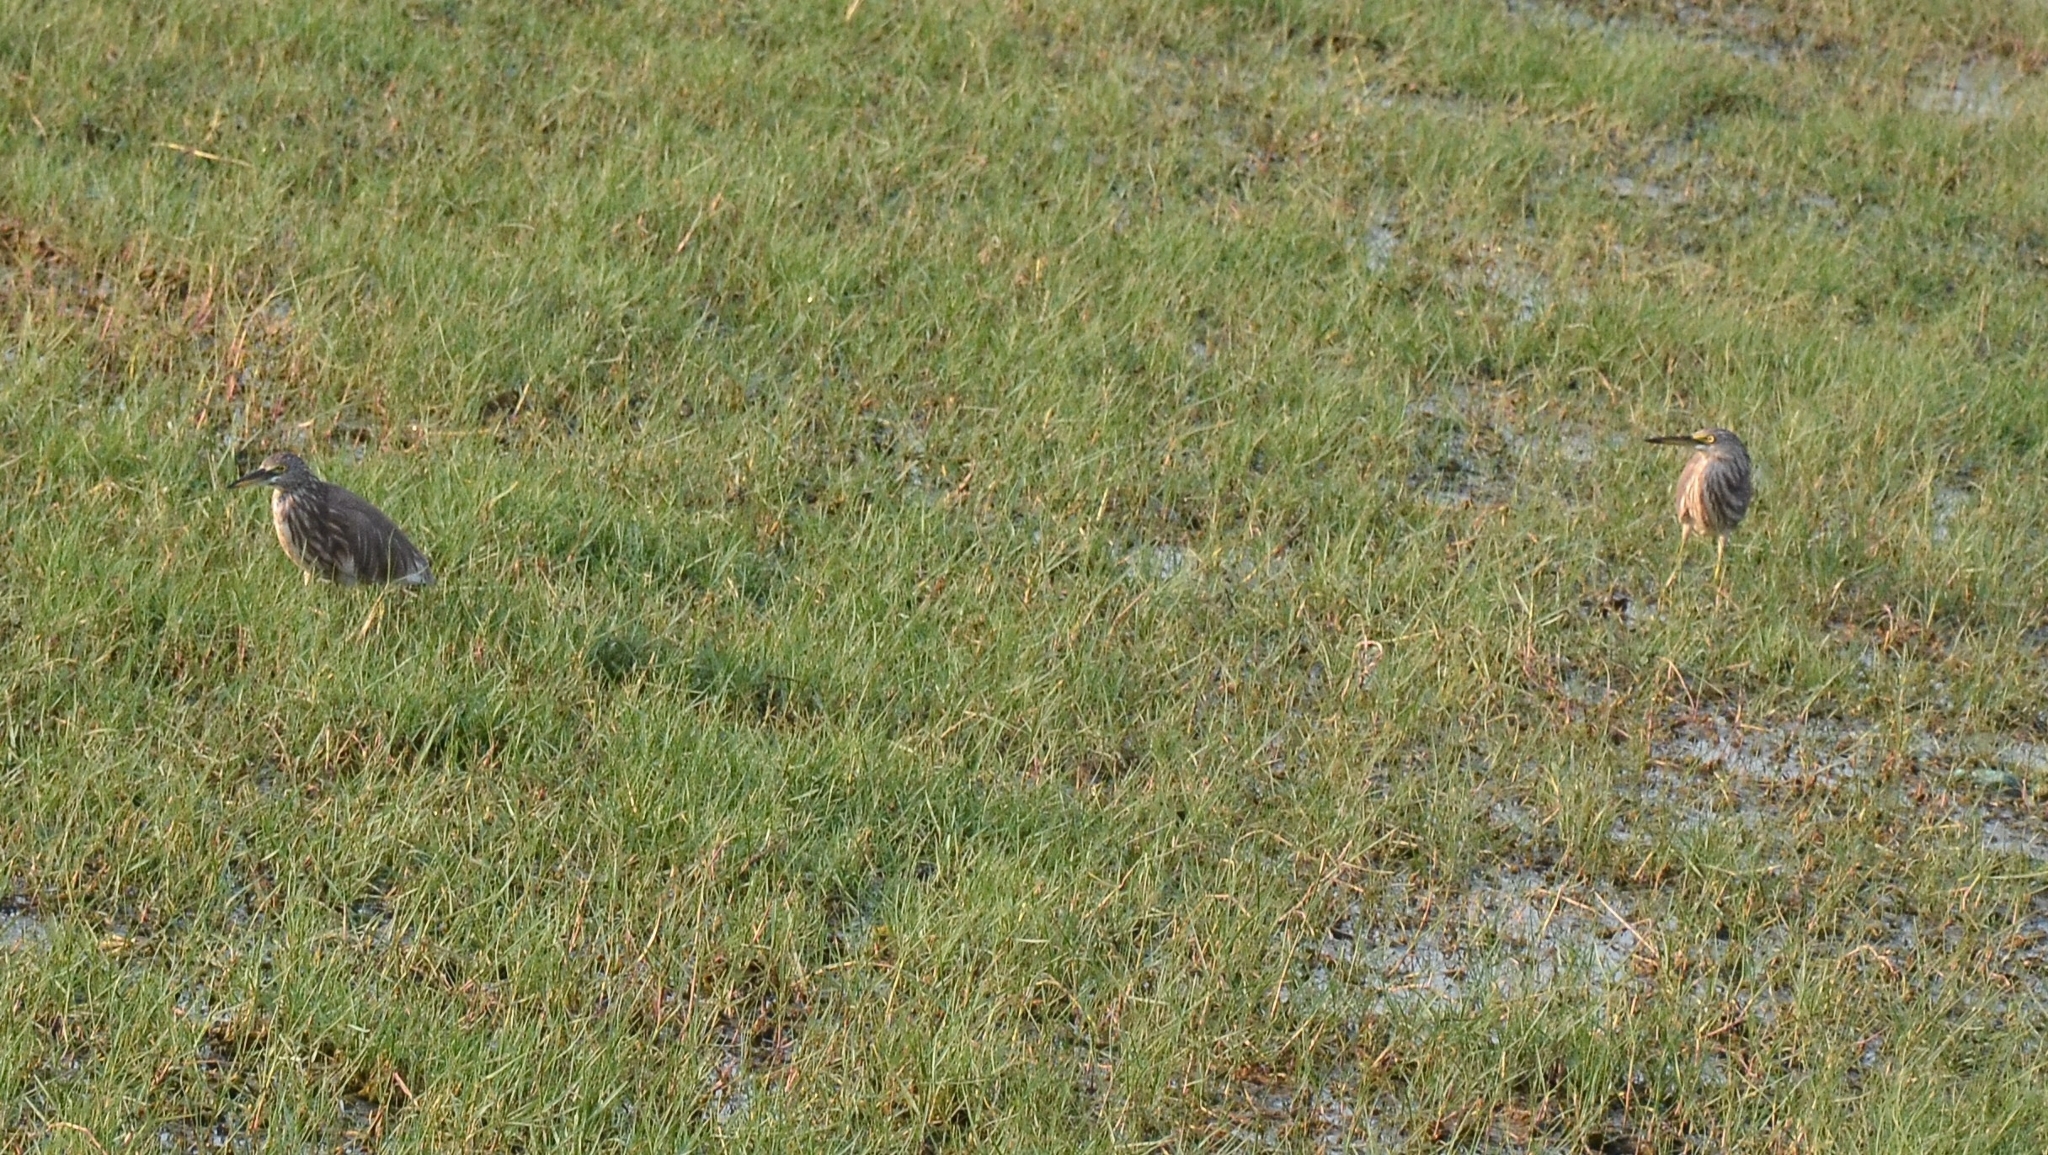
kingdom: Animalia
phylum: Chordata
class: Aves
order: Pelecaniformes
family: Ardeidae
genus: Ardeola
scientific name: Ardeola grayii
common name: Indian pond heron
